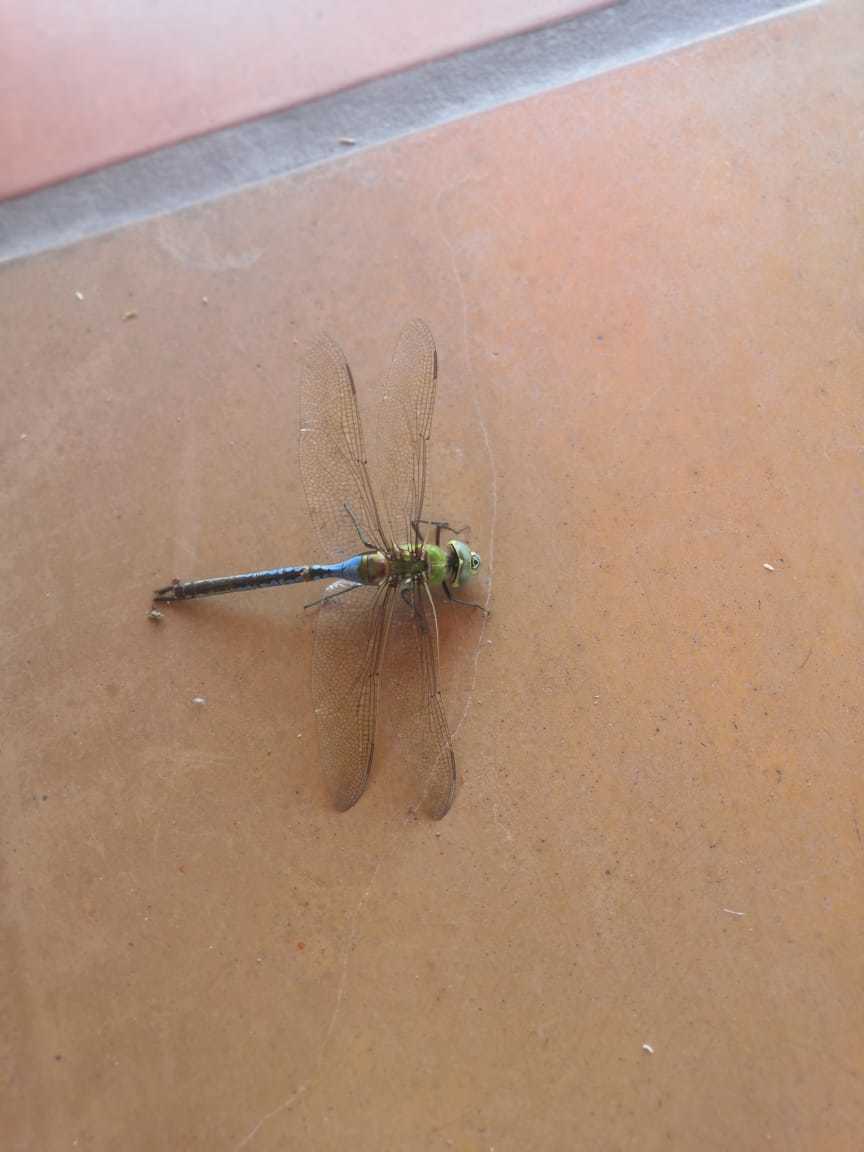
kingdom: Animalia
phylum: Arthropoda
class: Insecta
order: Odonata
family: Aeshnidae
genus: Anax
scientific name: Anax junius
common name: Common green darner
